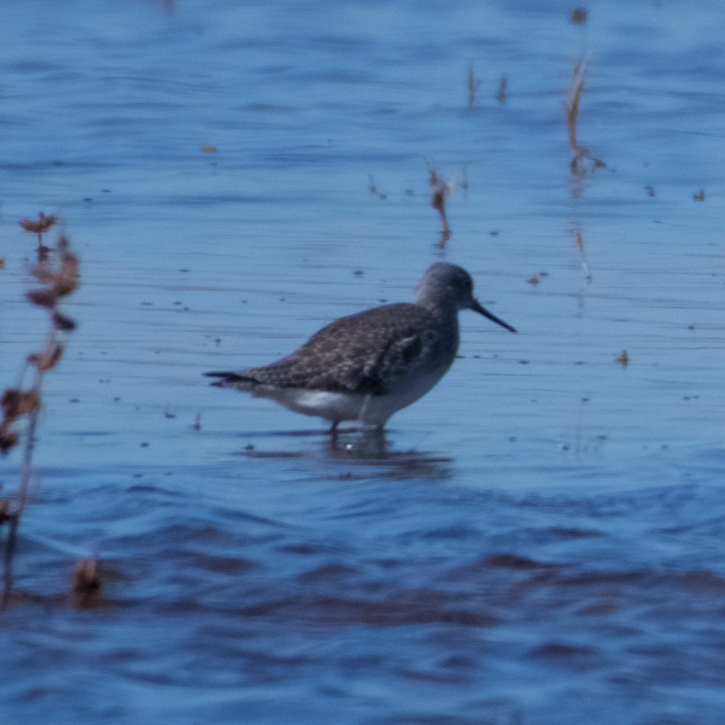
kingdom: Animalia
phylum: Chordata
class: Aves
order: Charadriiformes
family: Scolopacidae
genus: Tringa
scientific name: Tringa melanoleuca
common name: Greater yellowlegs
